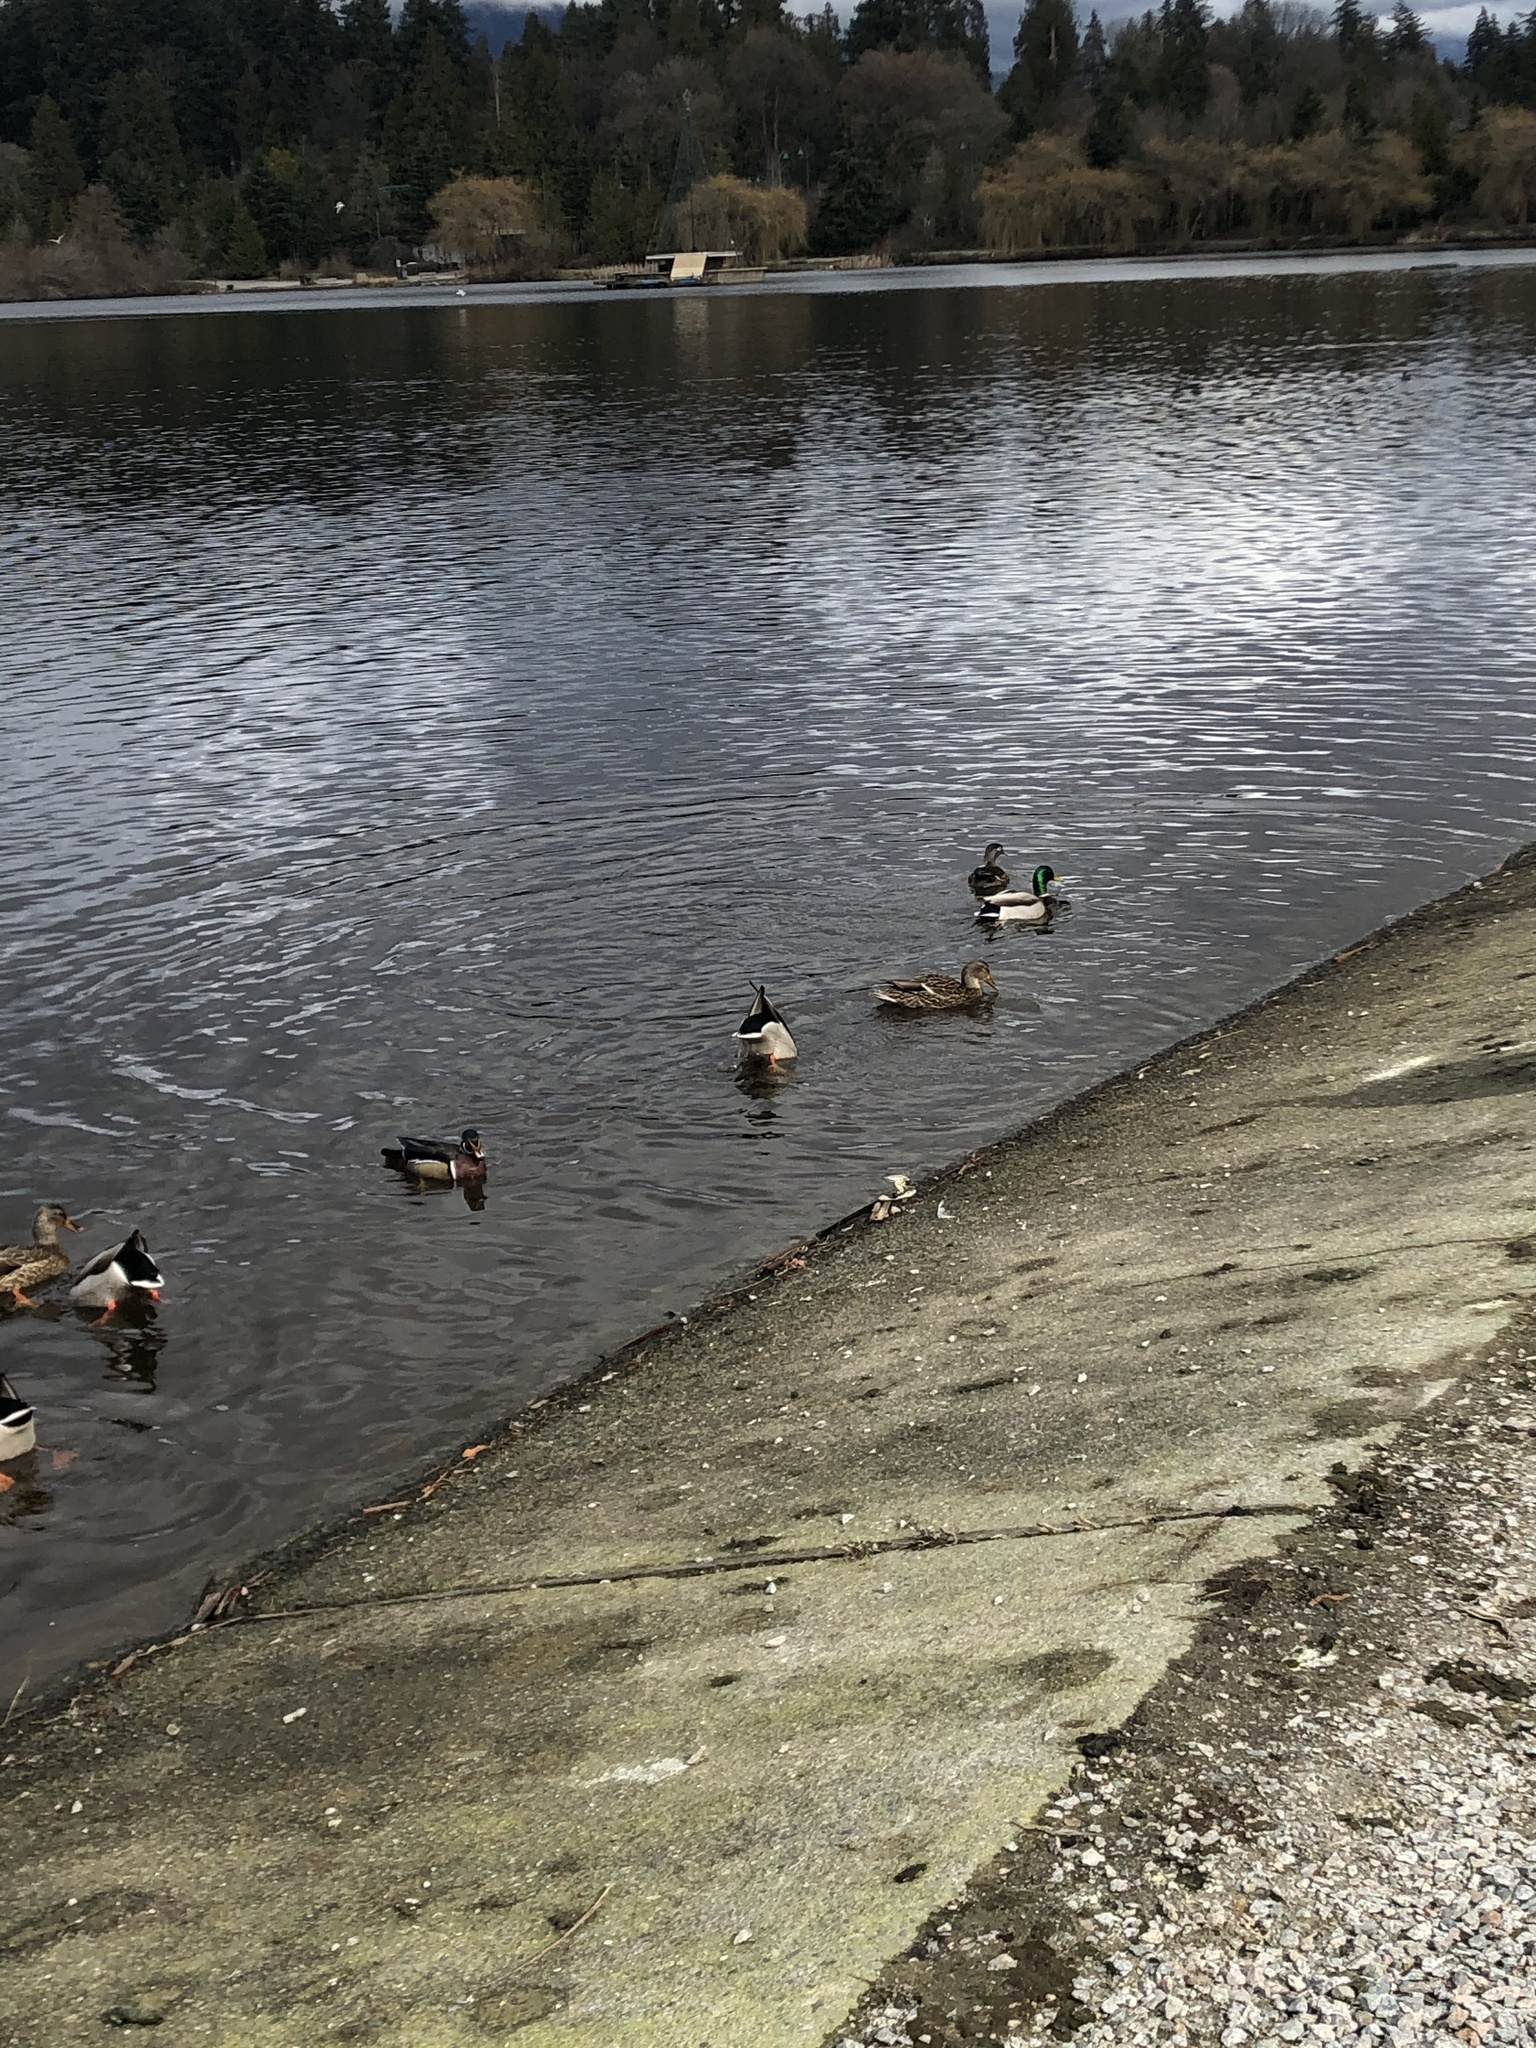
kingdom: Animalia
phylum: Chordata
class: Aves
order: Anseriformes
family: Anatidae
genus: Anas
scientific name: Anas platyrhynchos
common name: Mallard
